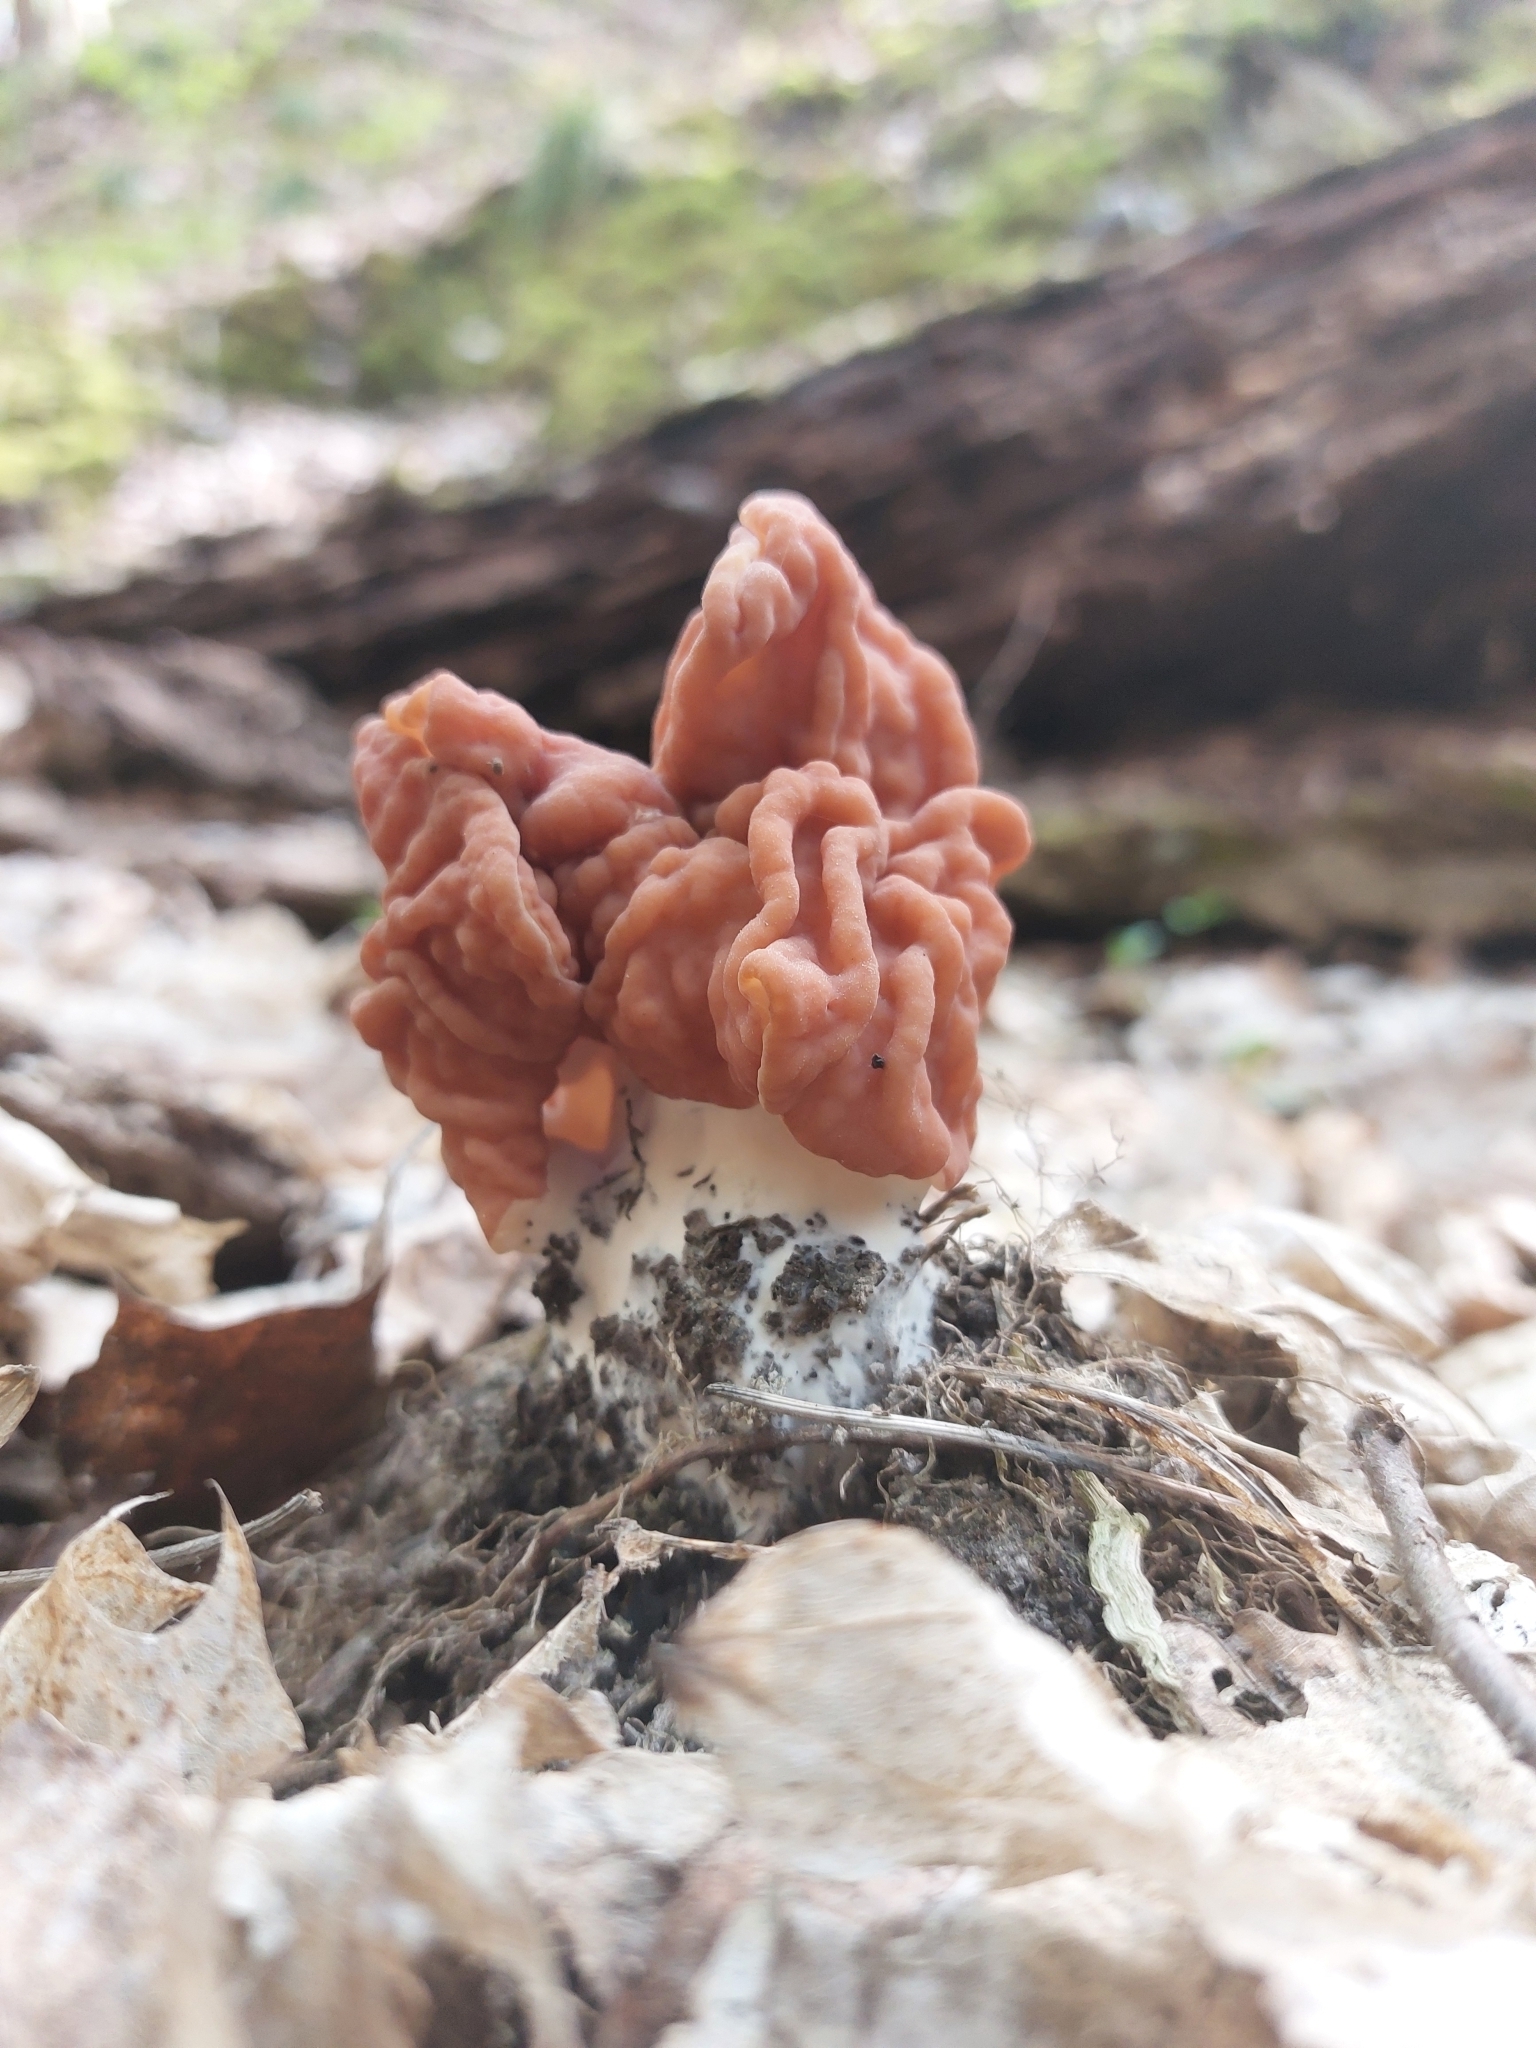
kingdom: Fungi
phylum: Ascomycota
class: Pezizomycetes
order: Pezizales
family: Discinaceae
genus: Discina
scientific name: Discina fastigiata
